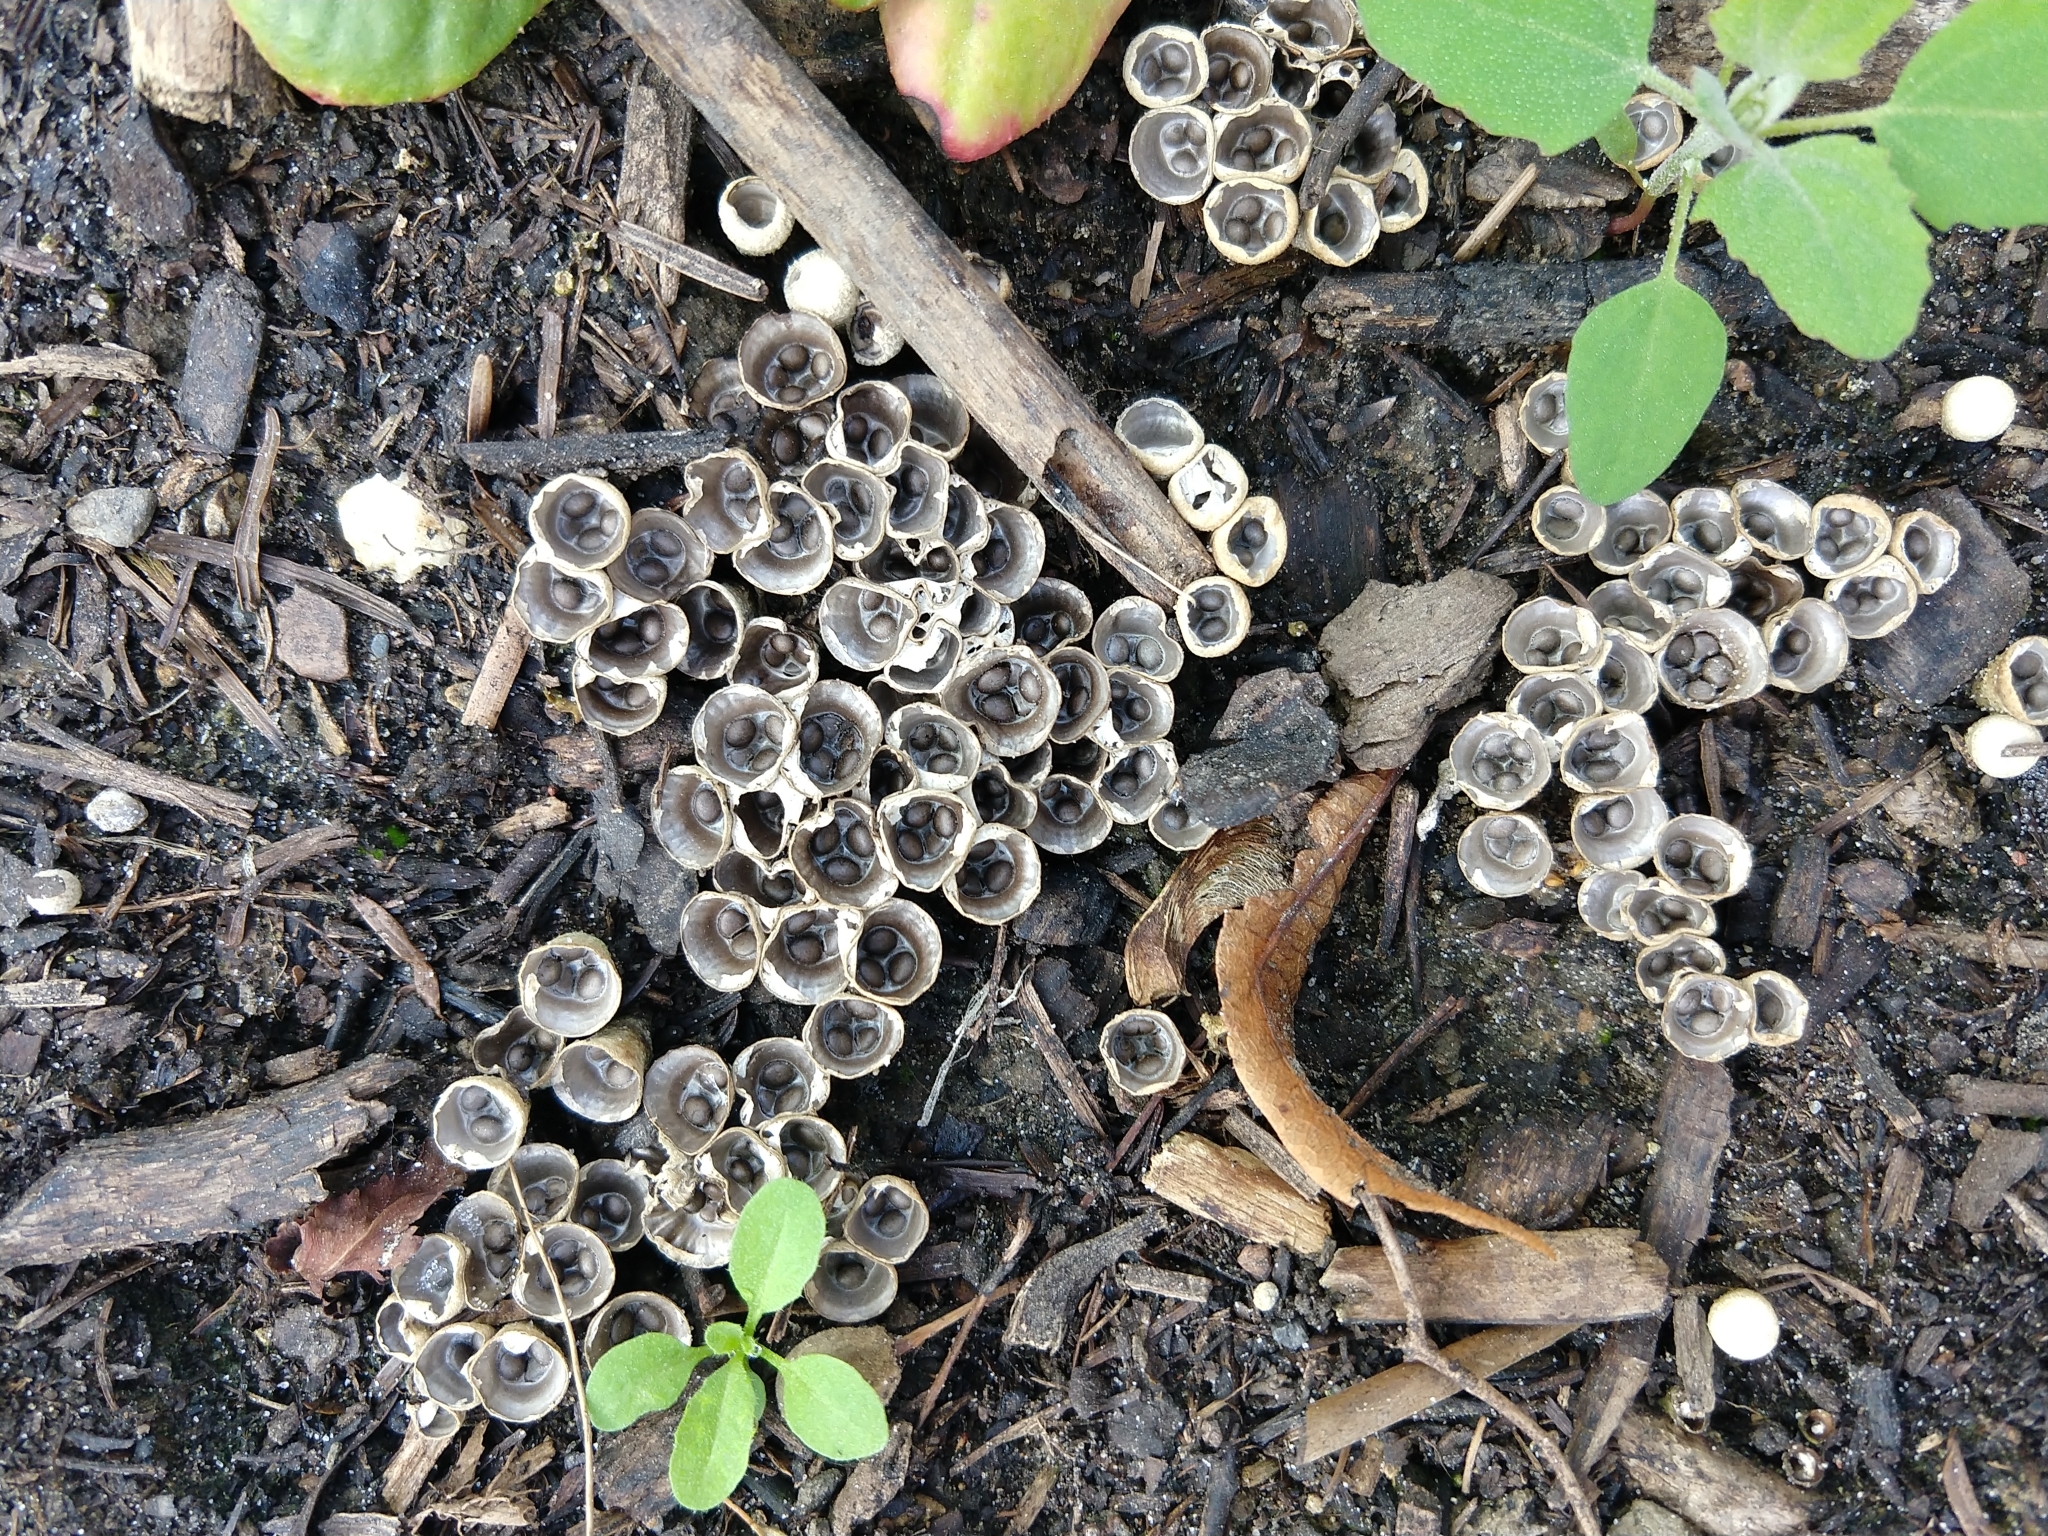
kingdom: Fungi
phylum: Basidiomycota
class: Agaricomycetes
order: Agaricales
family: Agaricaceae
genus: Cyathus
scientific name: Cyathus olla
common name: Field bird's nest
